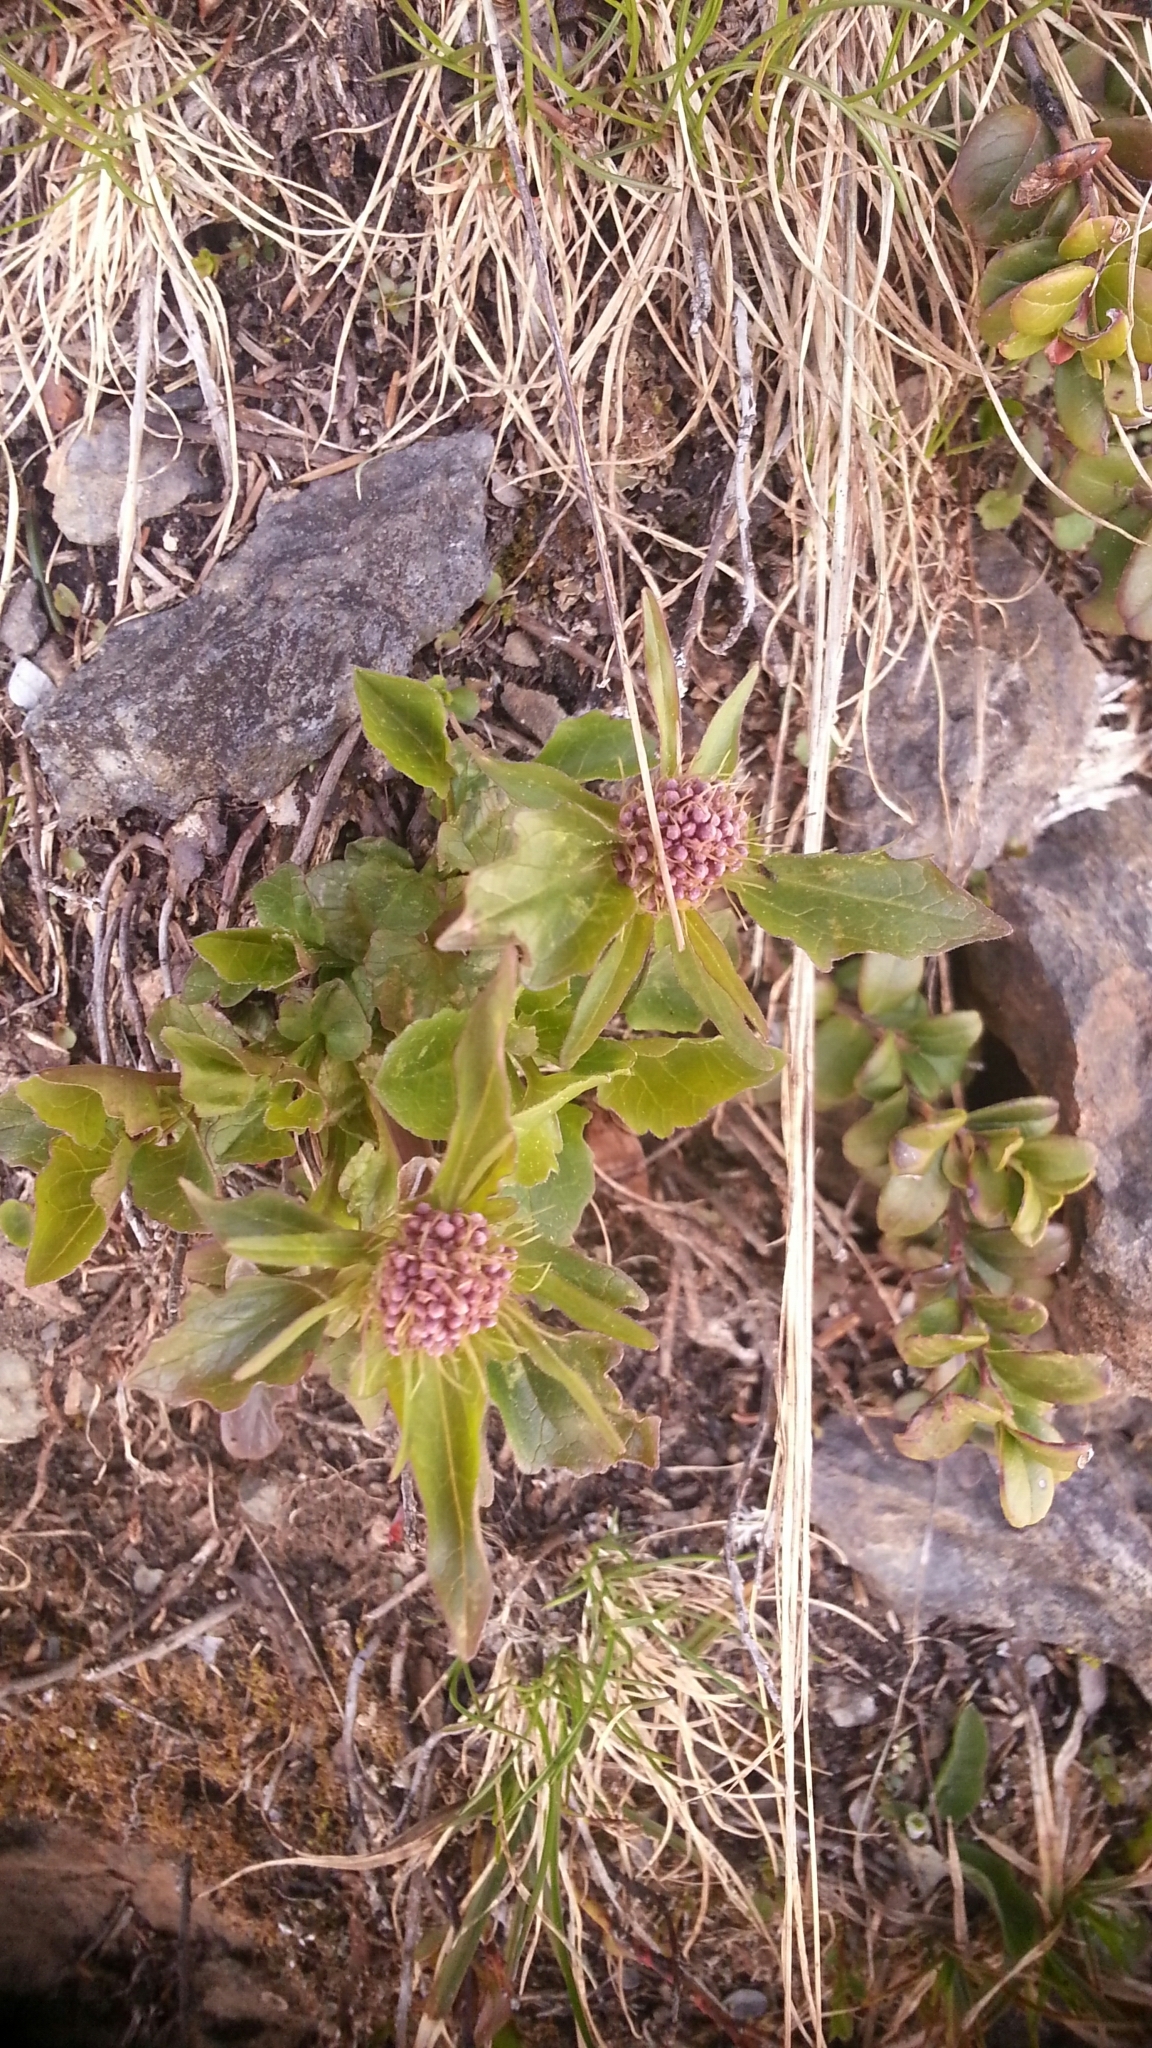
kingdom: Plantae
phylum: Tracheophyta
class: Magnoliopsida
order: Dipsacales
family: Caprifoliaceae
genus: Valeriana
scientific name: Valeriana tripteris
